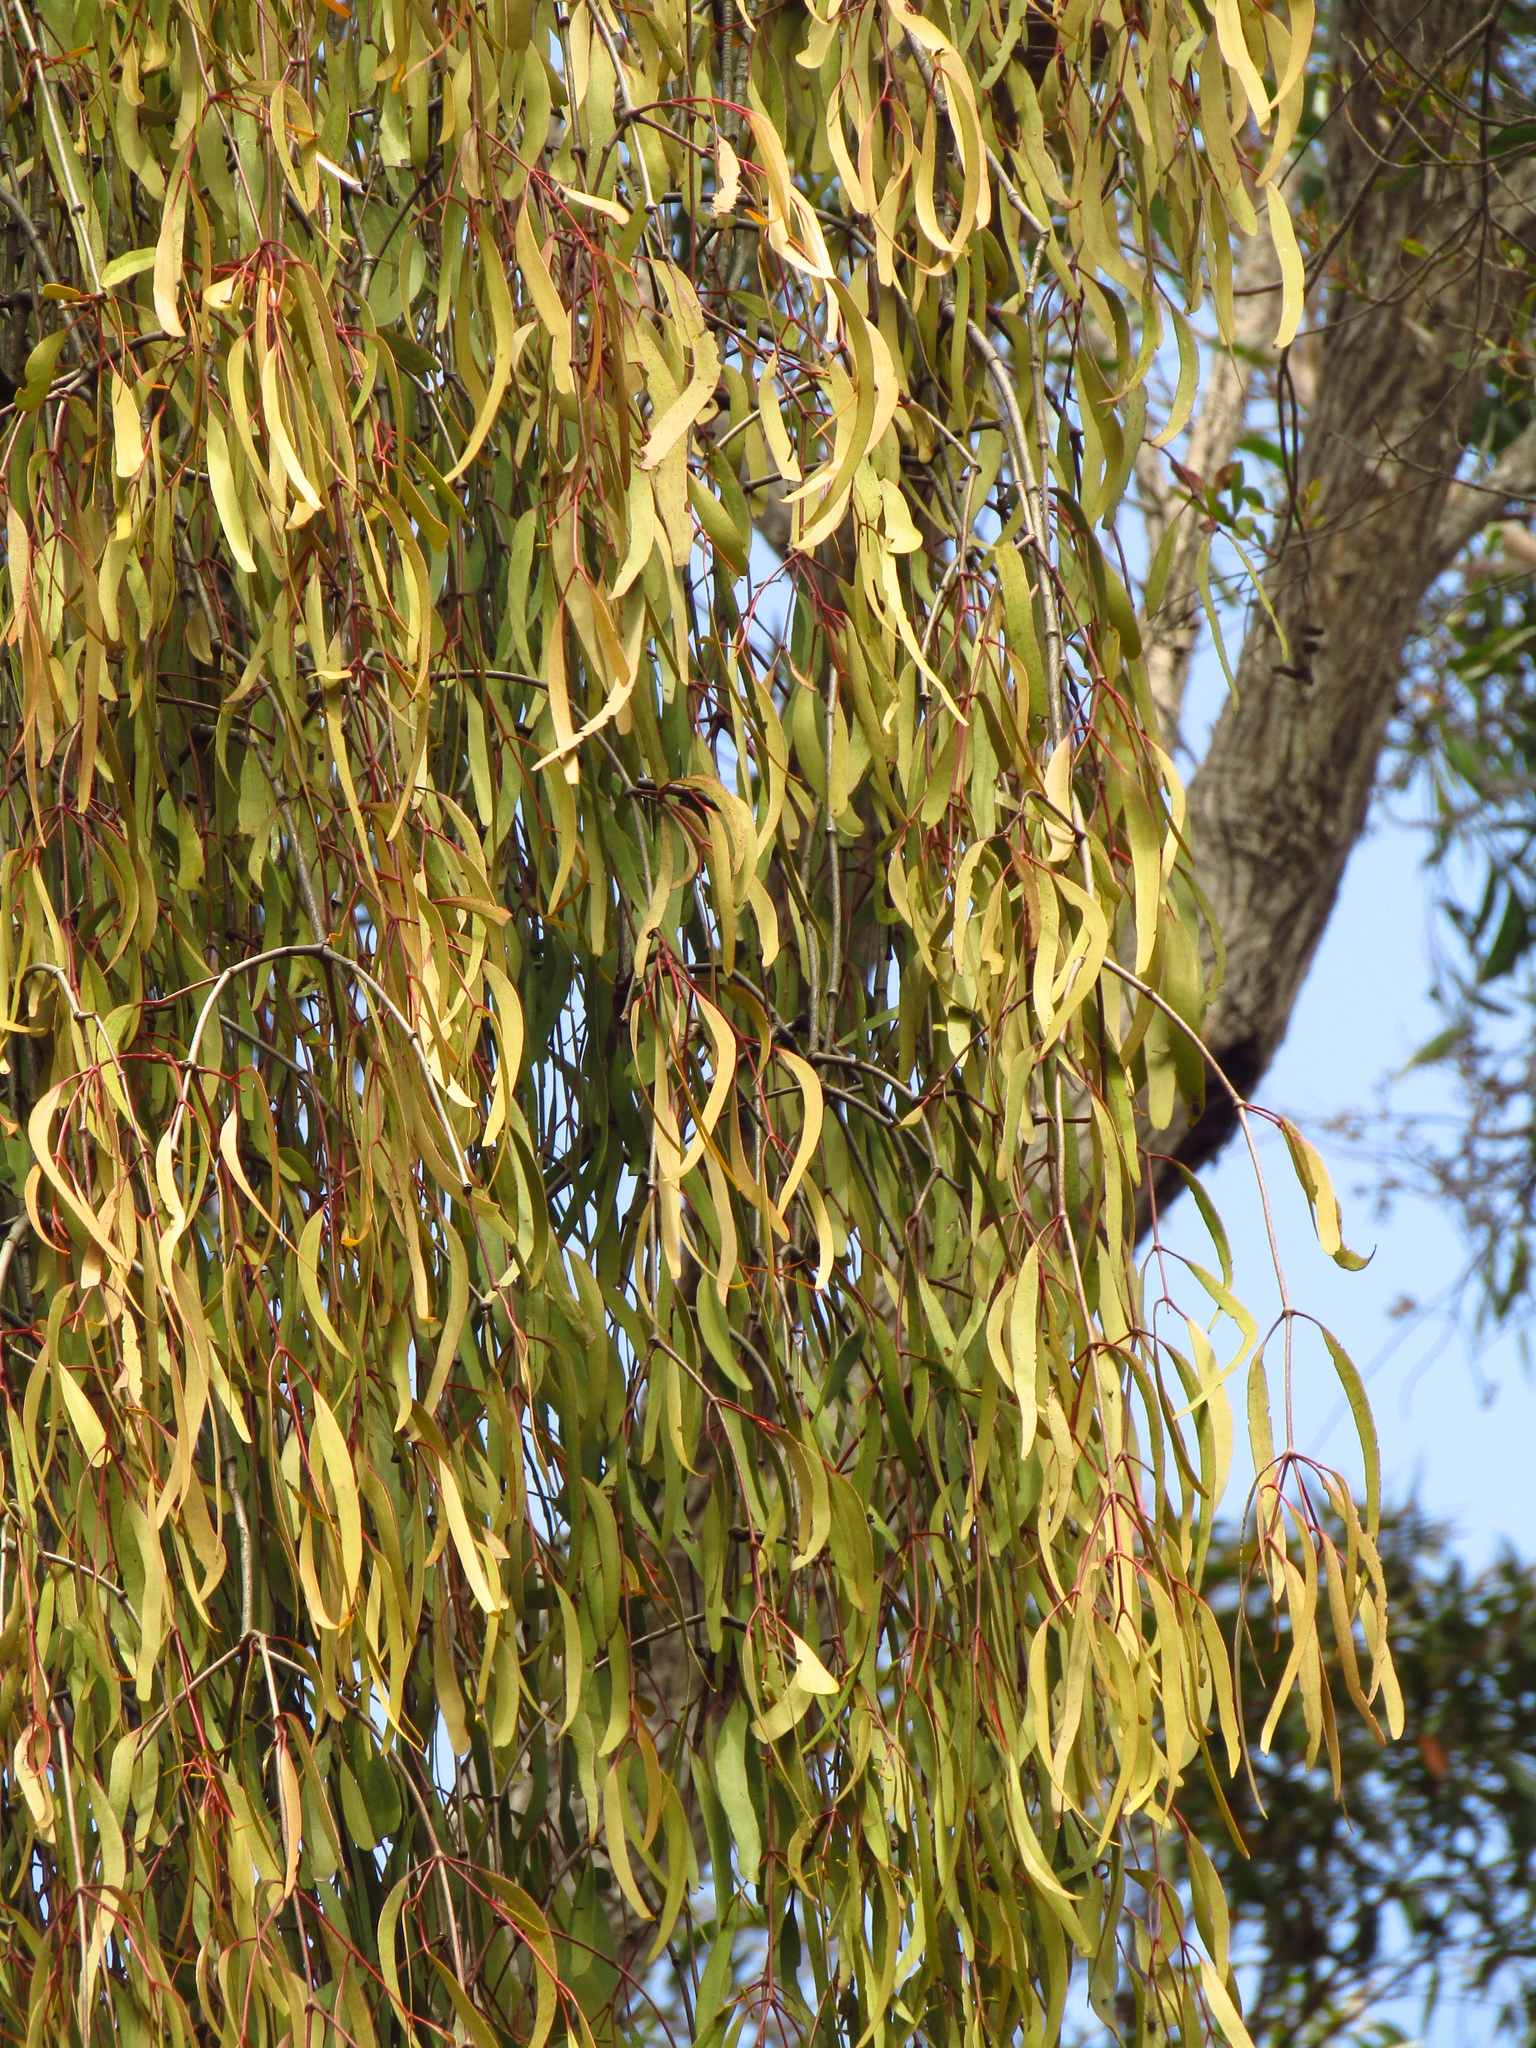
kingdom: Plantae
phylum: Tracheophyta
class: Magnoliopsida
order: Santalales
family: Loranthaceae
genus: Muellerina
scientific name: Muellerina eucalyptoides
